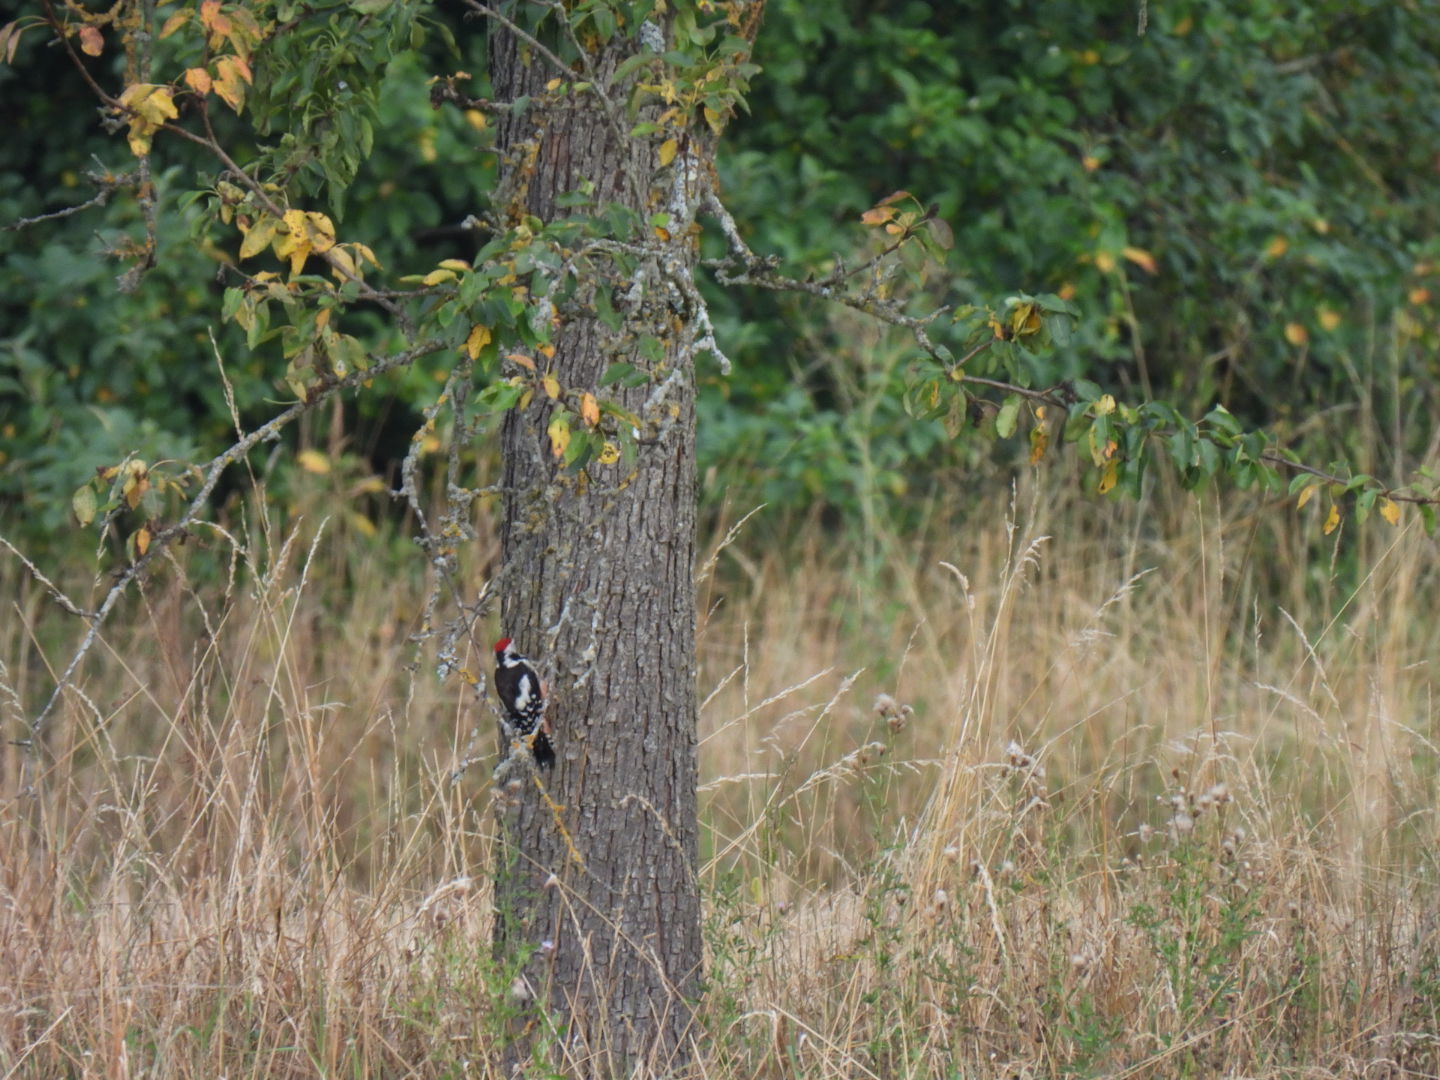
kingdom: Animalia
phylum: Chordata
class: Aves
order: Piciformes
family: Picidae
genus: Dendrocoptes
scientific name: Dendrocoptes medius
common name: Middle spotted woodpecker
